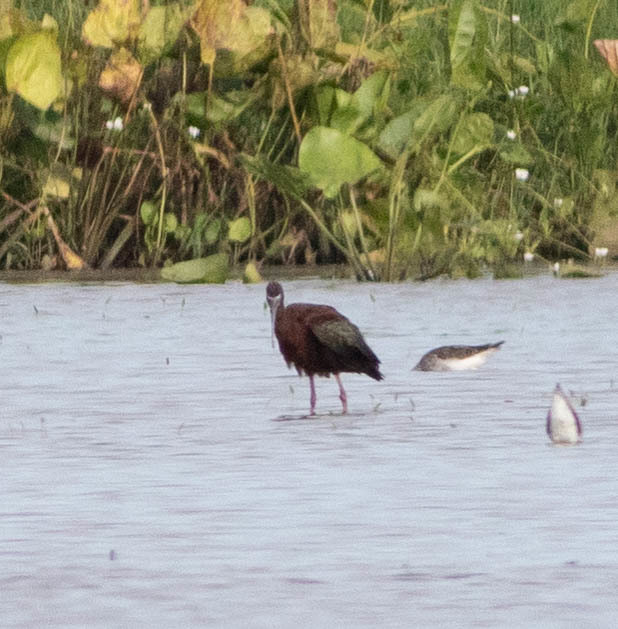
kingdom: Animalia
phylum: Chordata
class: Aves
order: Pelecaniformes
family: Threskiornithidae
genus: Plegadis
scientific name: Plegadis falcinellus
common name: Glossy ibis
